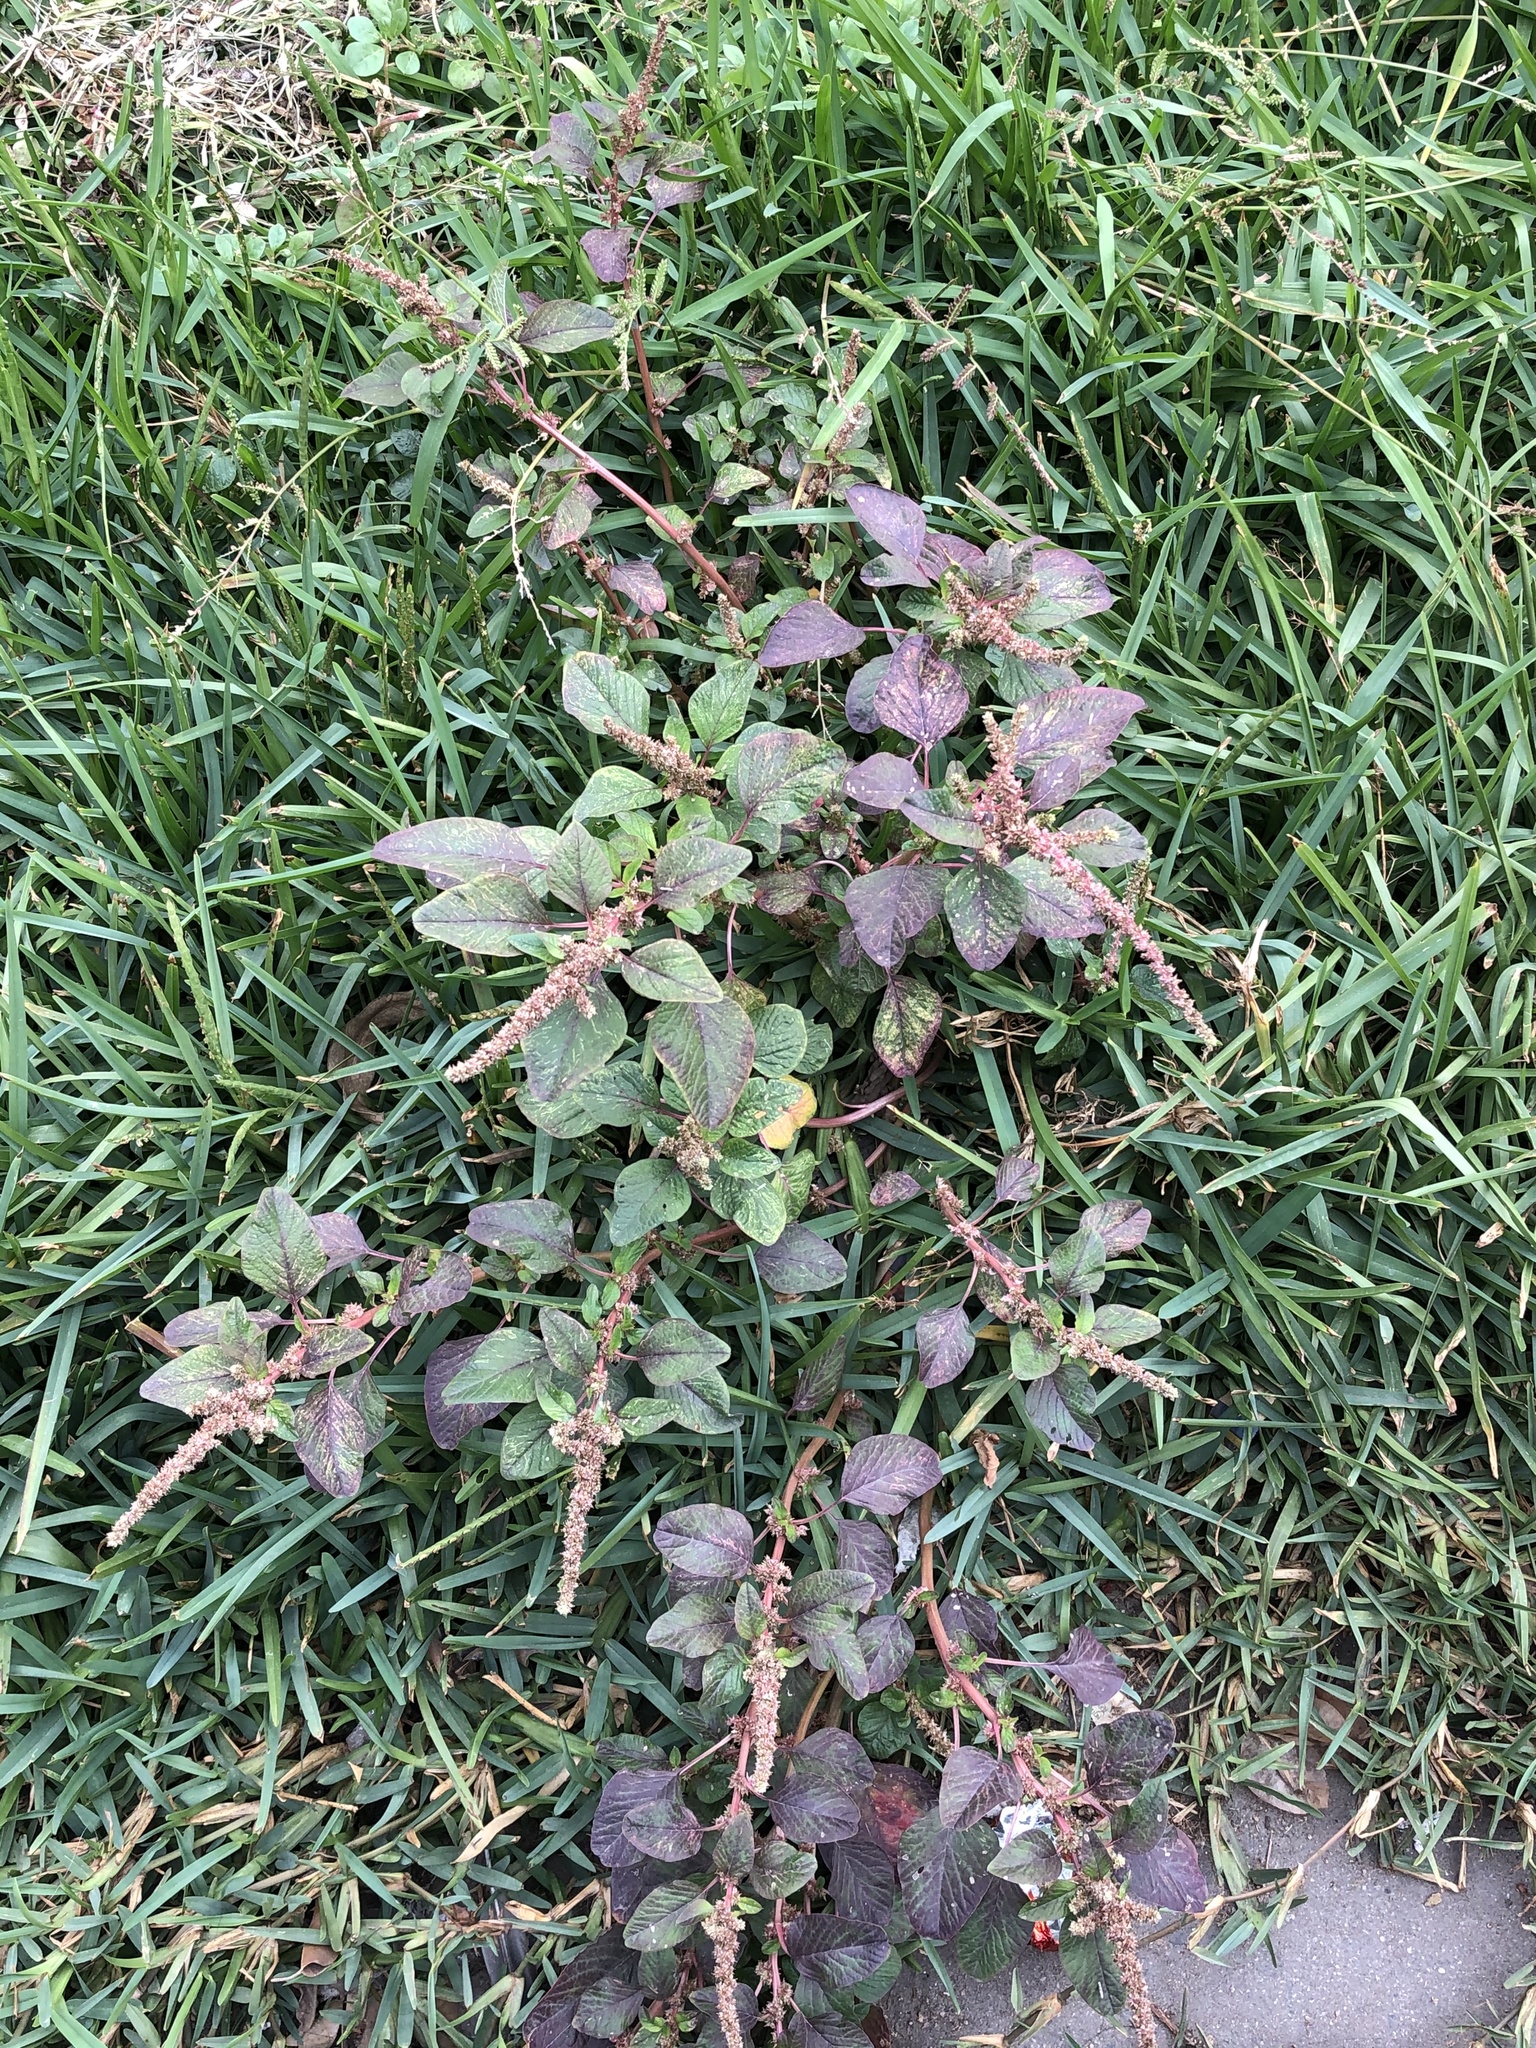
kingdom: Plantae
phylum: Tracheophyta
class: Magnoliopsida
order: Caryophyllales
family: Amaranthaceae
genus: Amaranthus
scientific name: Amaranthus dubius
